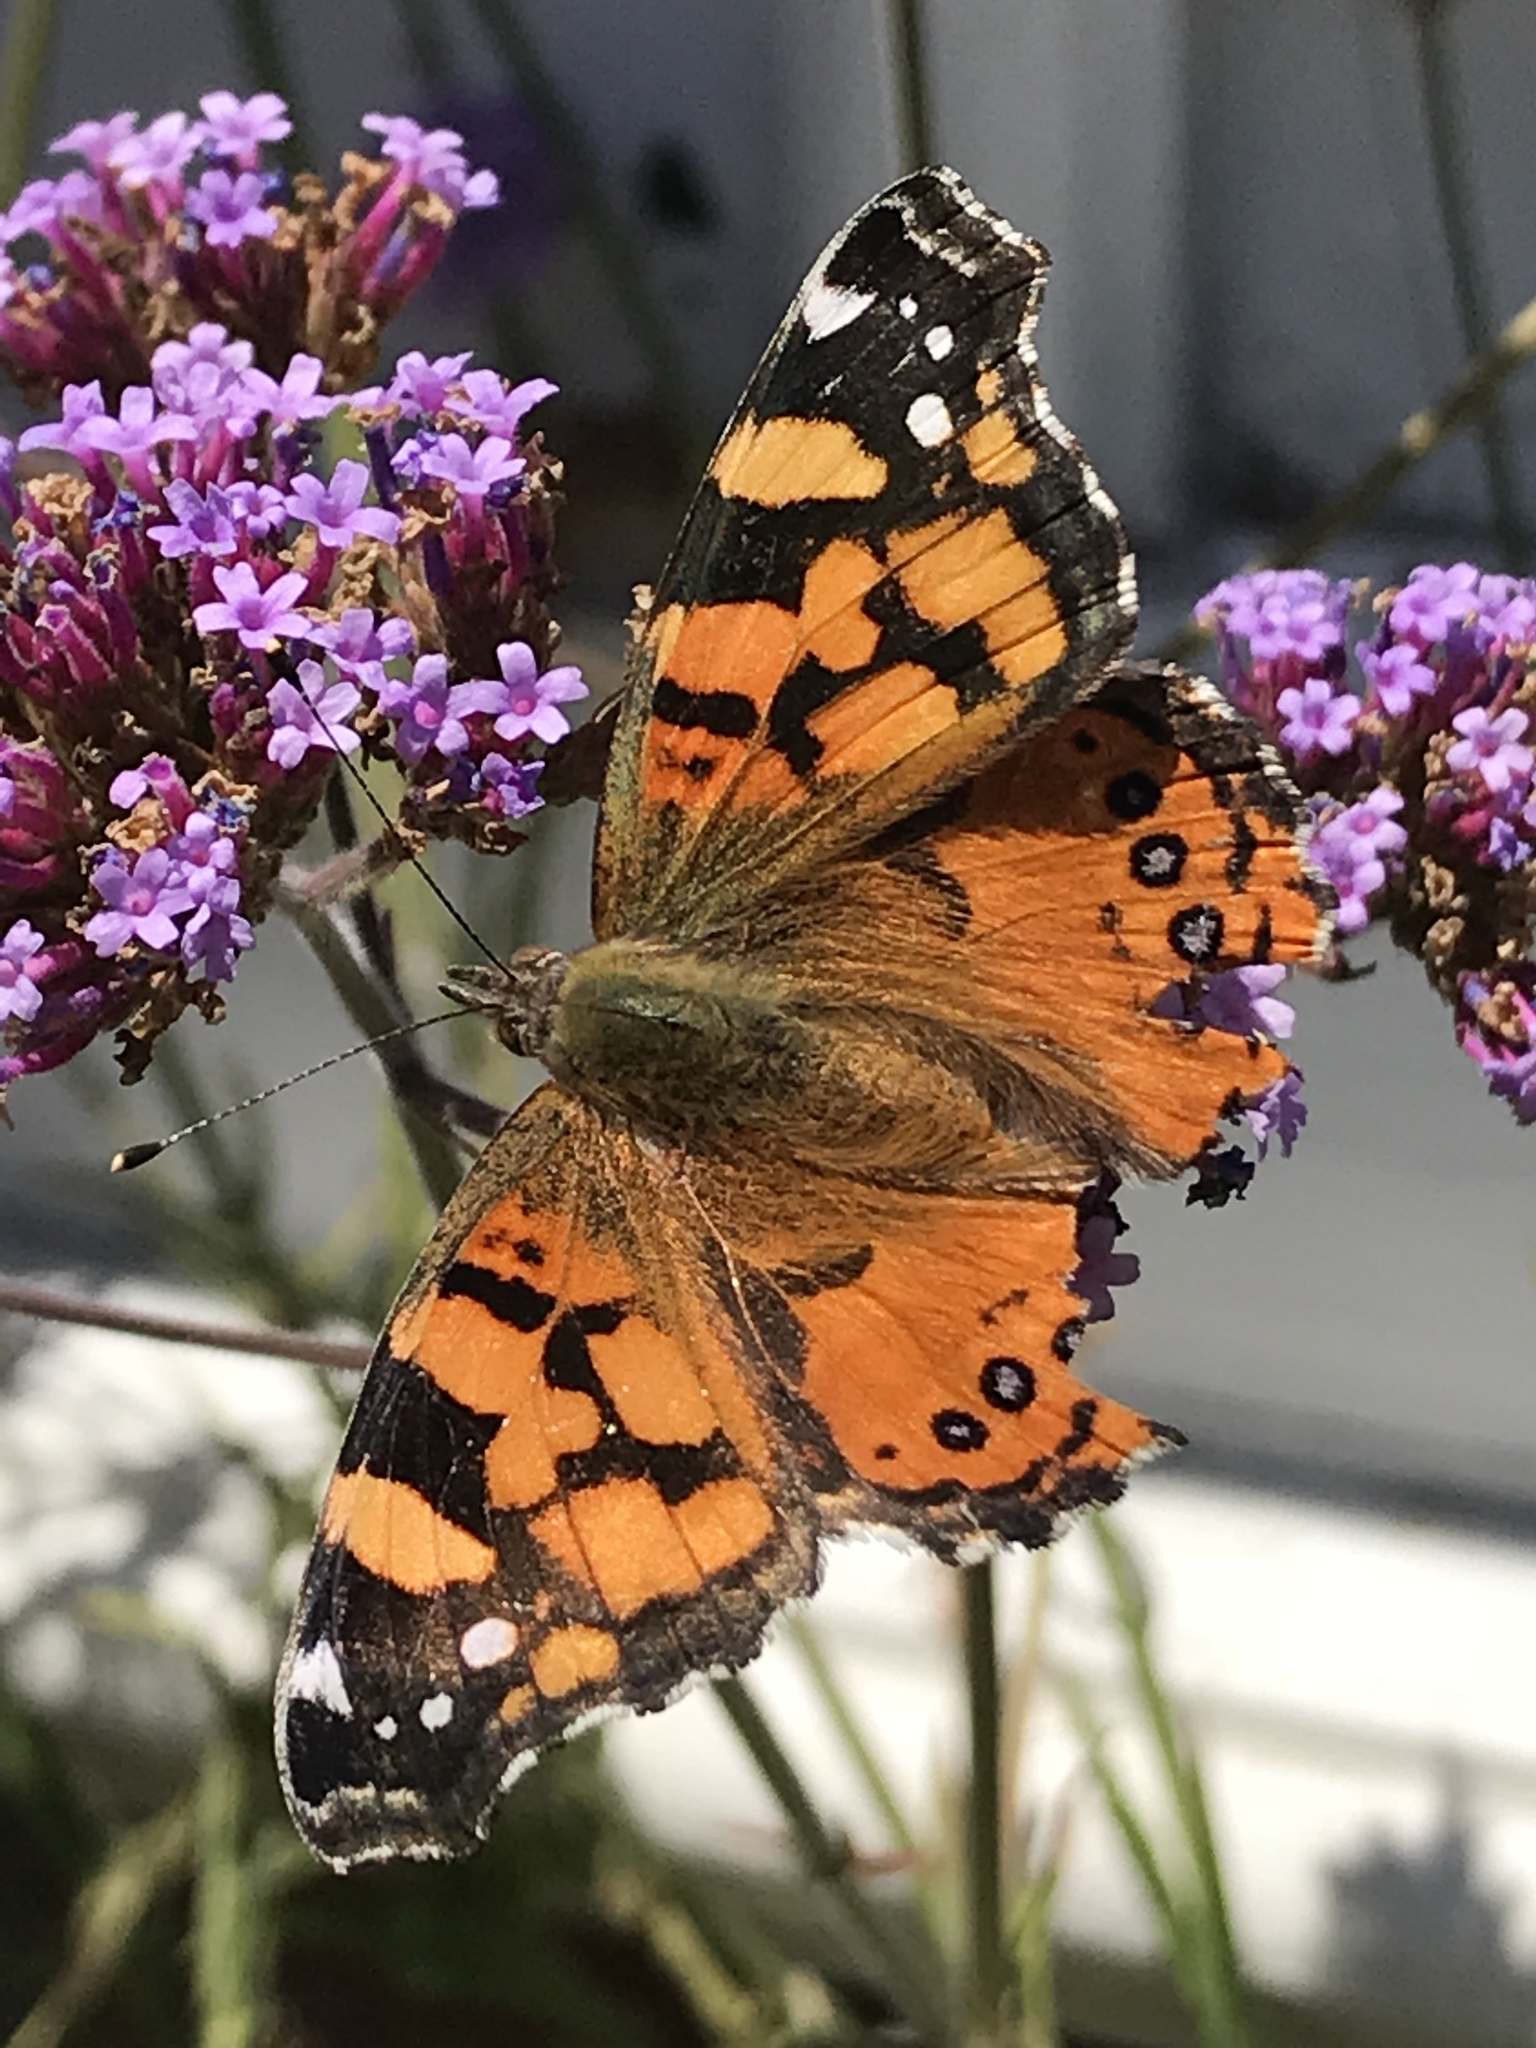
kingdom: Animalia
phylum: Arthropoda
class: Insecta
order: Lepidoptera
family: Nymphalidae
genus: Vanessa
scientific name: Vanessa annabella
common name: West coast lady
